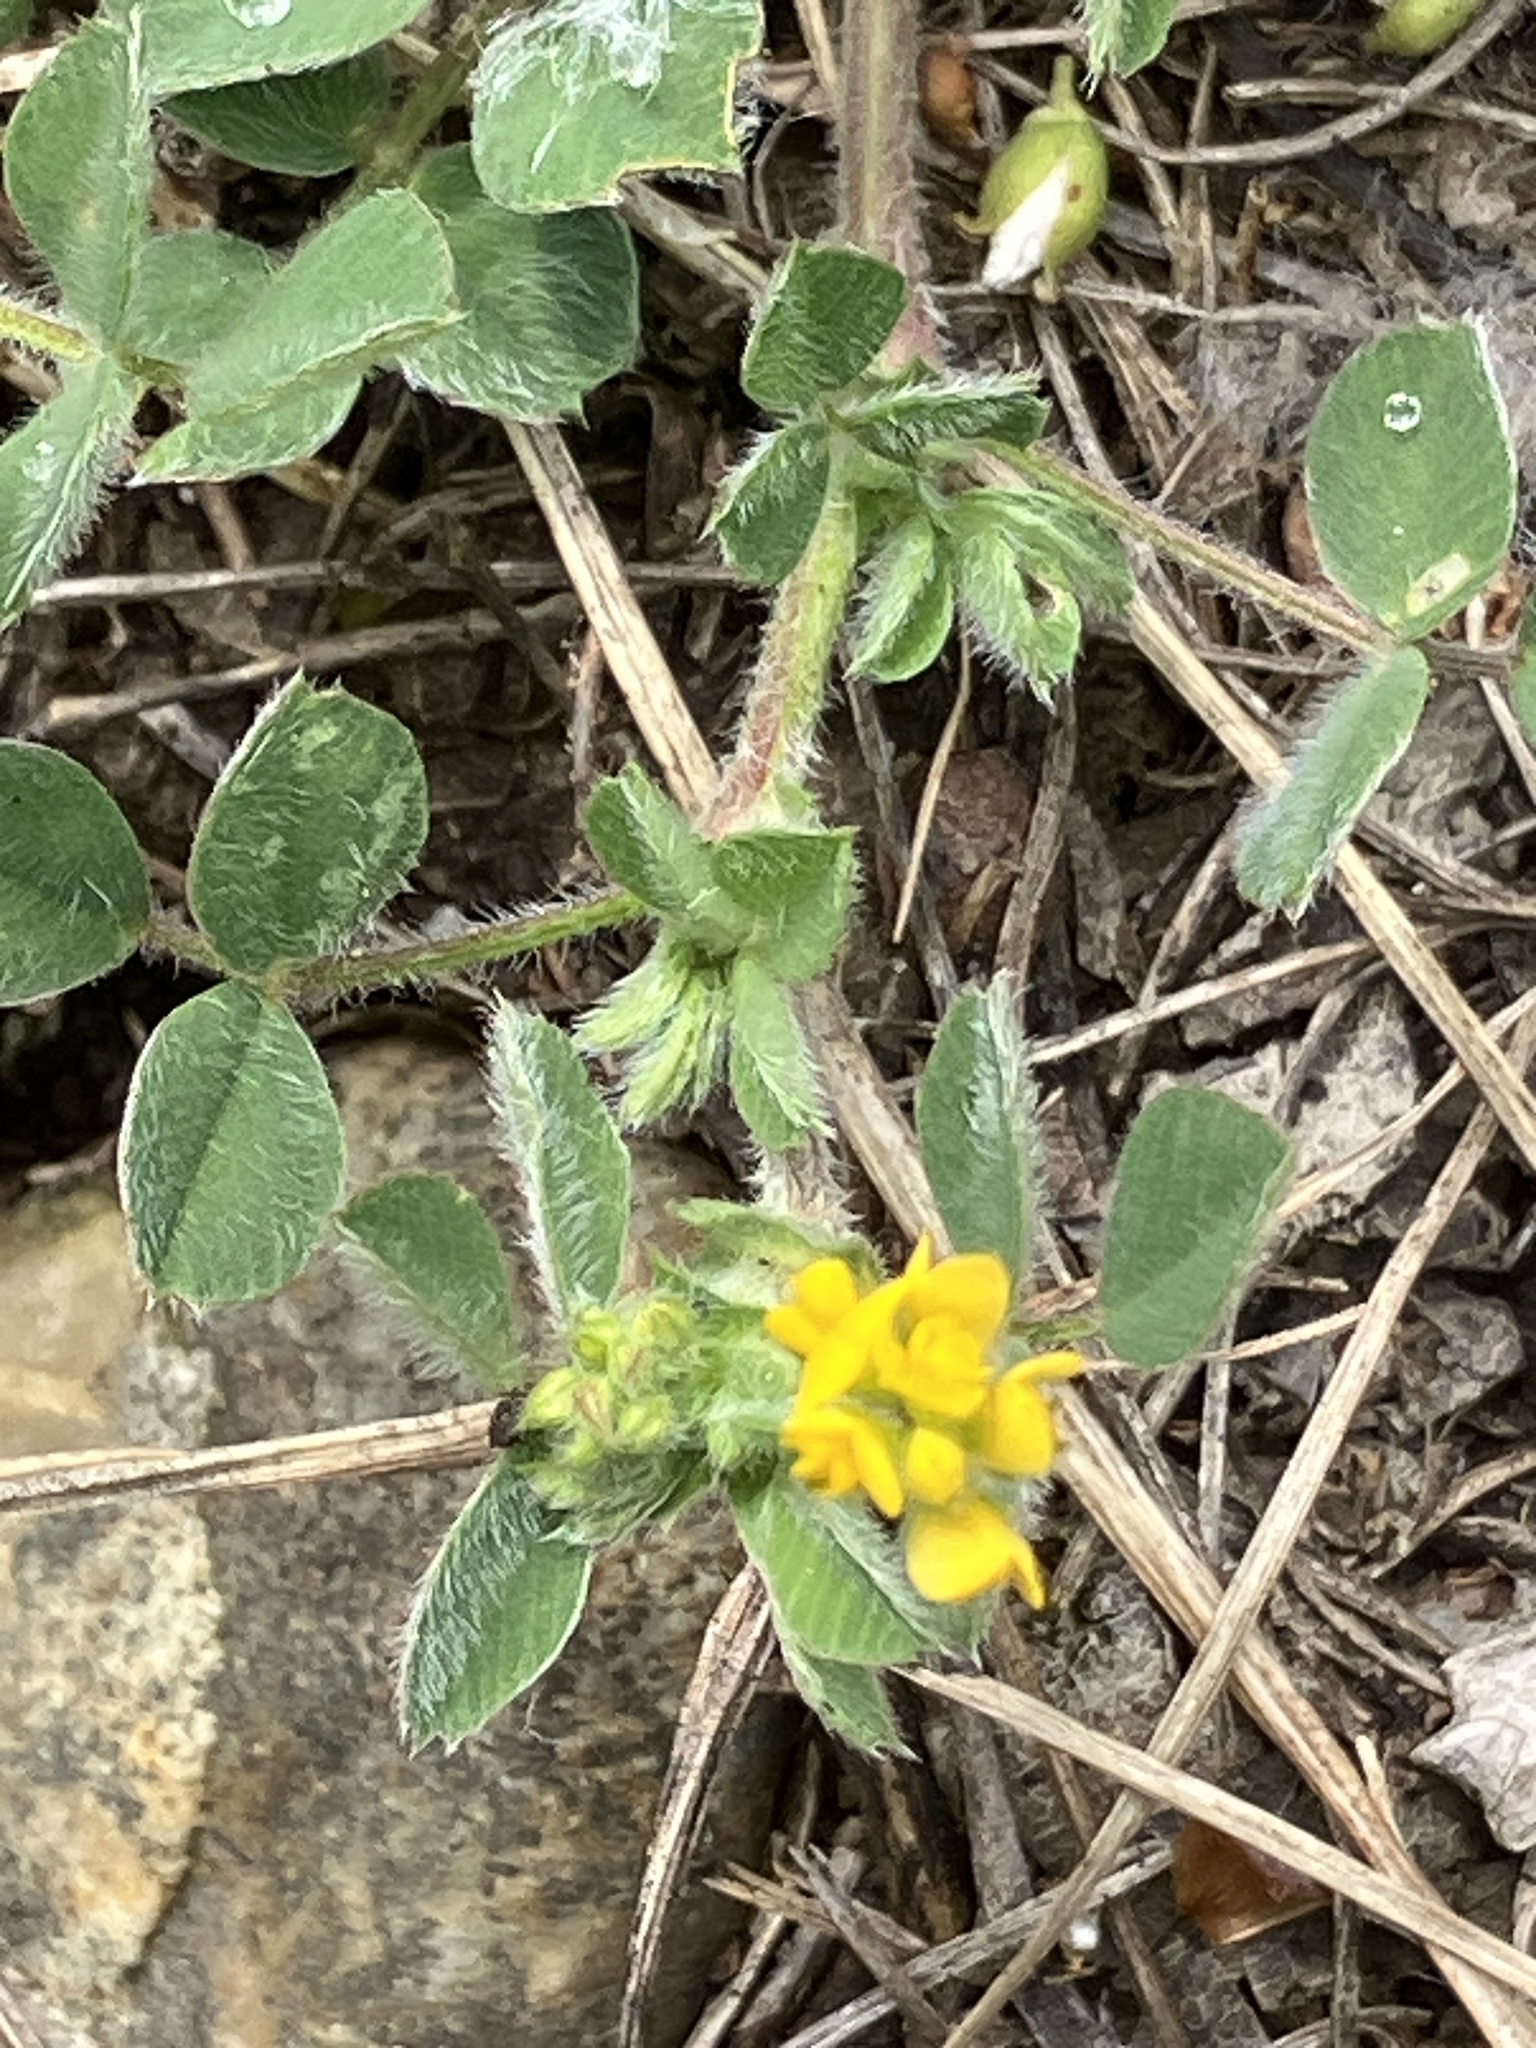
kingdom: Plantae
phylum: Tracheophyta
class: Magnoliopsida
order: Fabales
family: Fabaceae
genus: Medicago
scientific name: Medicago minima
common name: Little bur-clover
